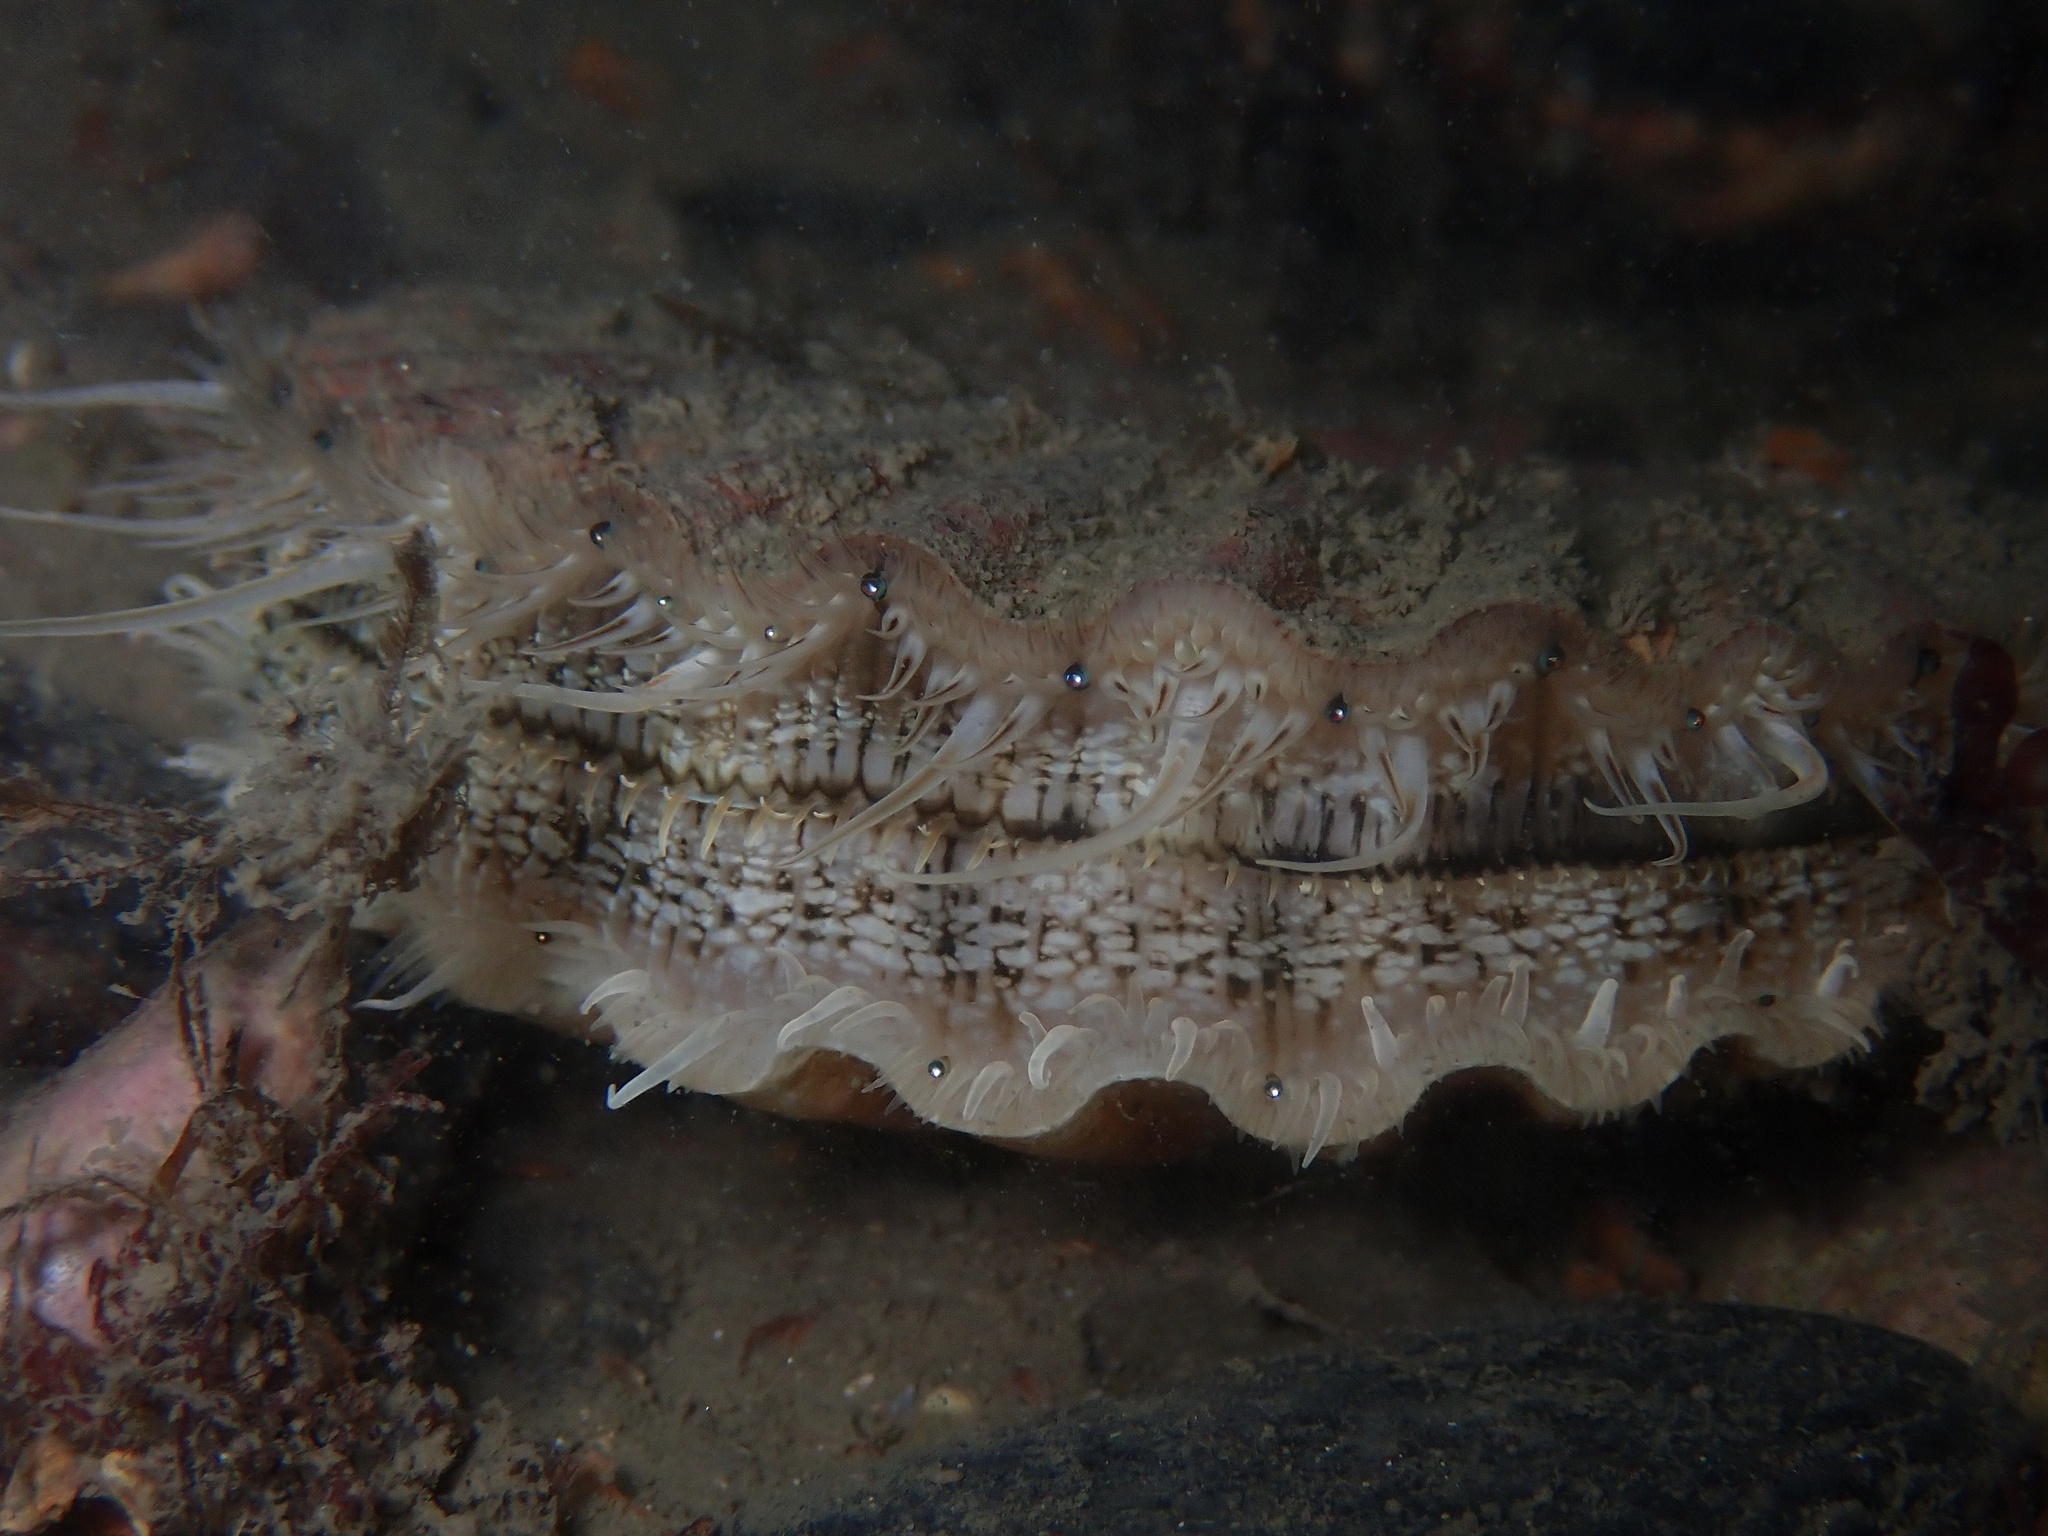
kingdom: Animalia
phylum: Mollusca
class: Bivalvia
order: Pectinida
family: Pectinidae
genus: Pecten
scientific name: Pecten maximus
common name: Great scallop
